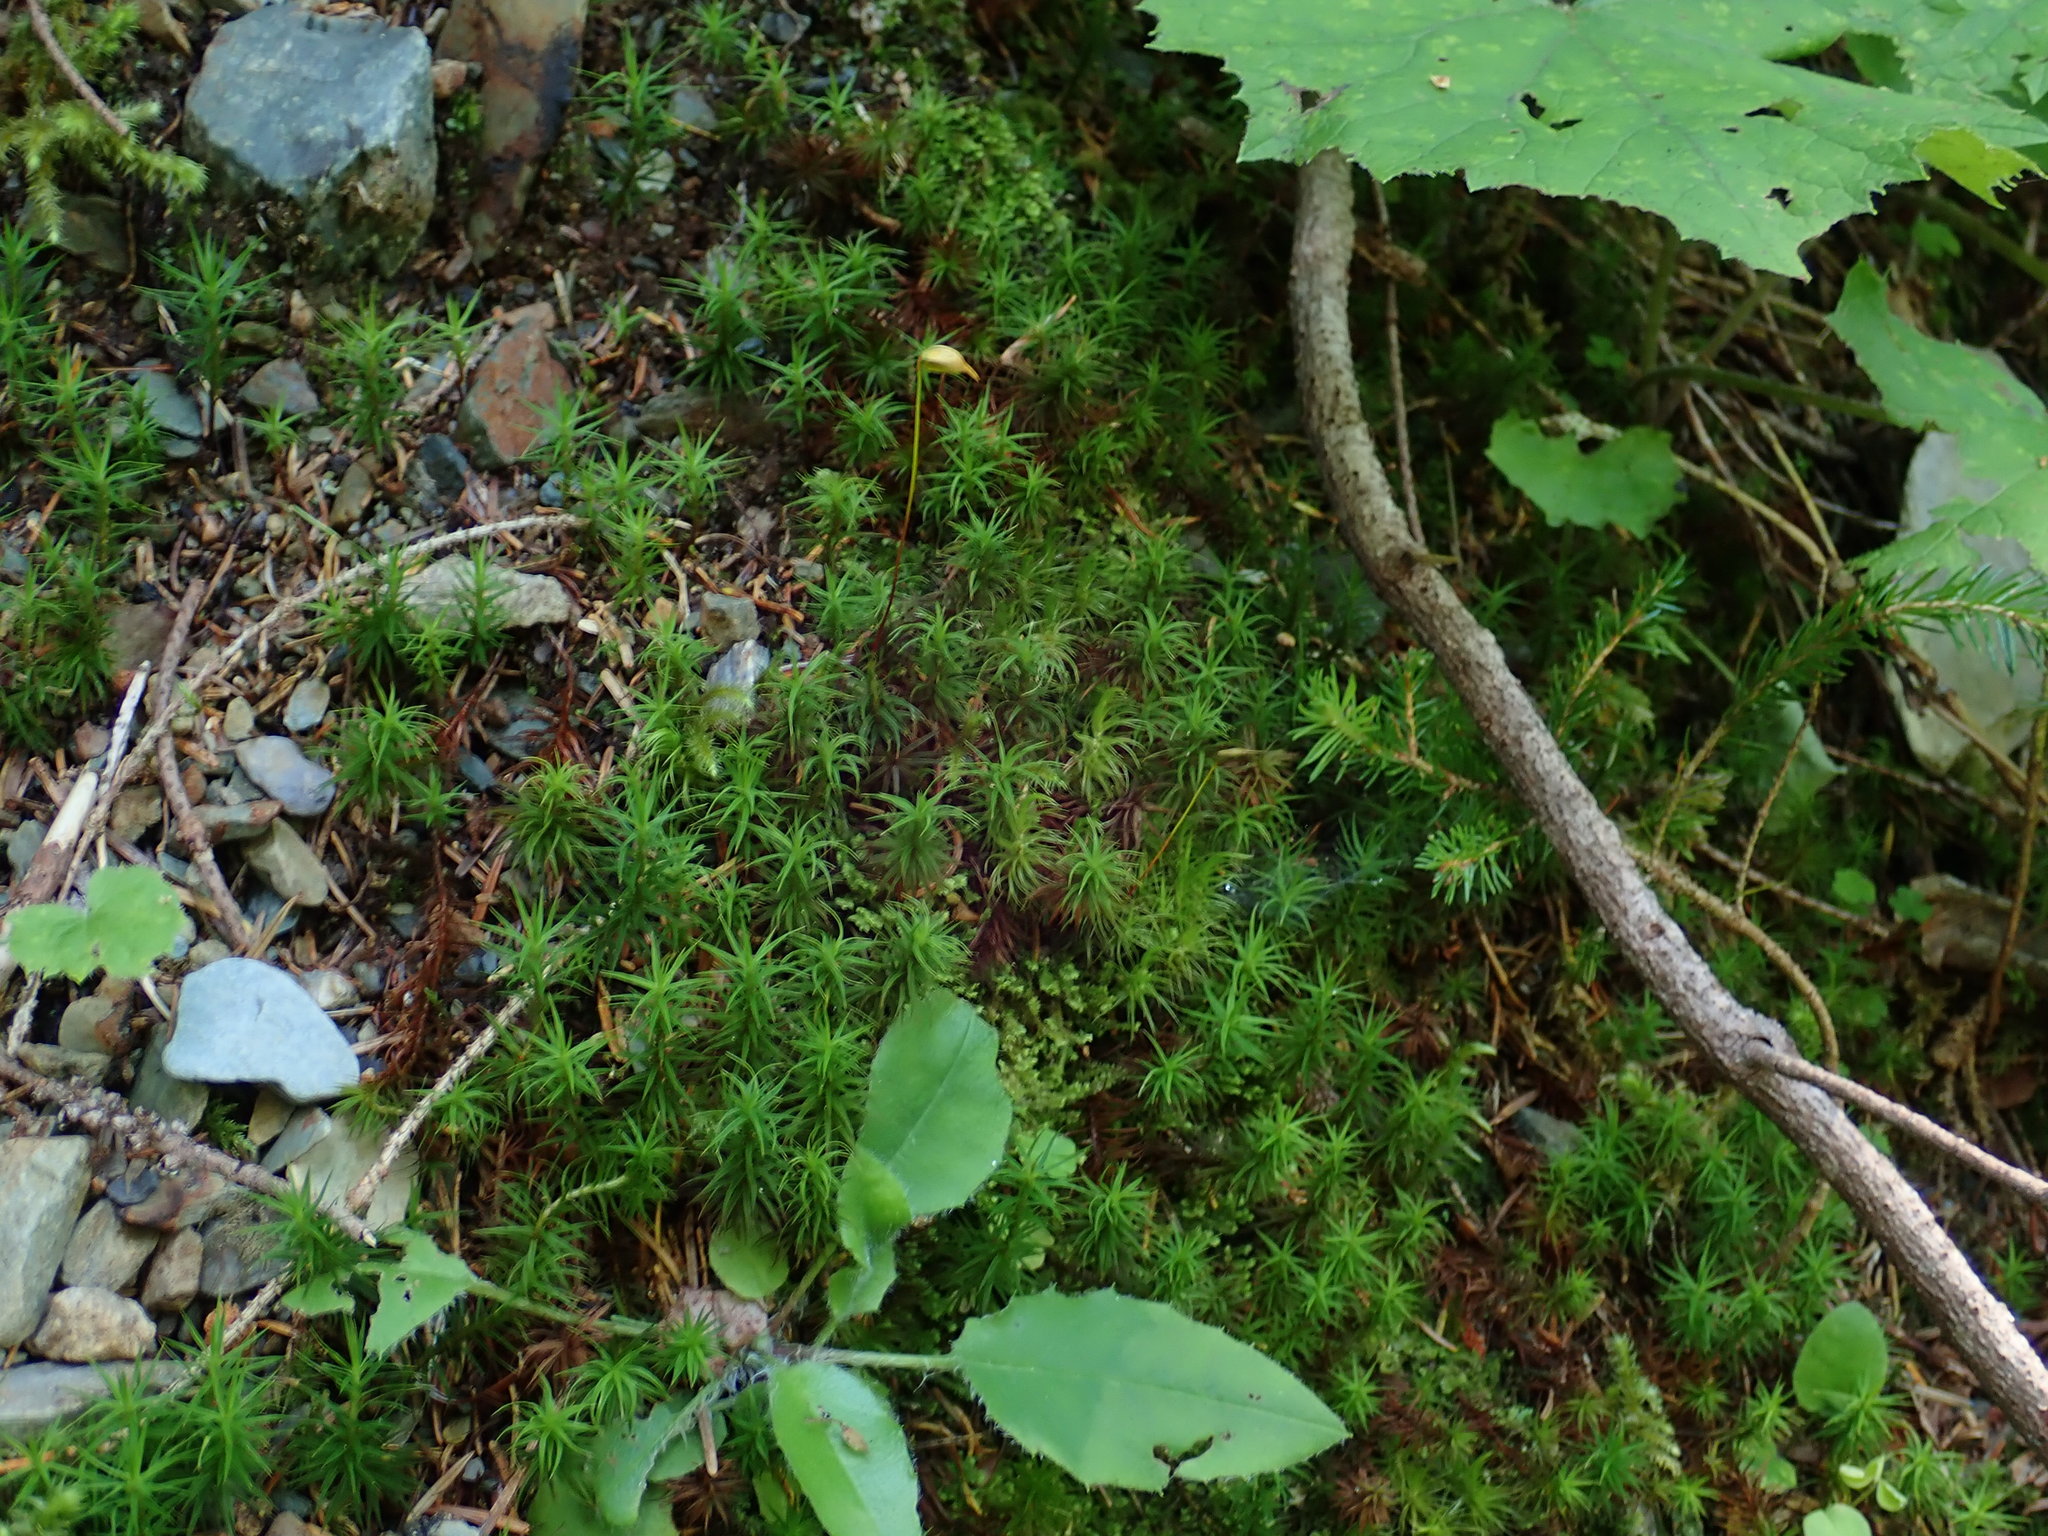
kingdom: Plantae
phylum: Bryophyta
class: Polytrichopsida
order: Polytrichales
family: Polytrichaceae
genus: Polytrichum
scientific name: Polytrichum formosum
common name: Bank haircap moss
